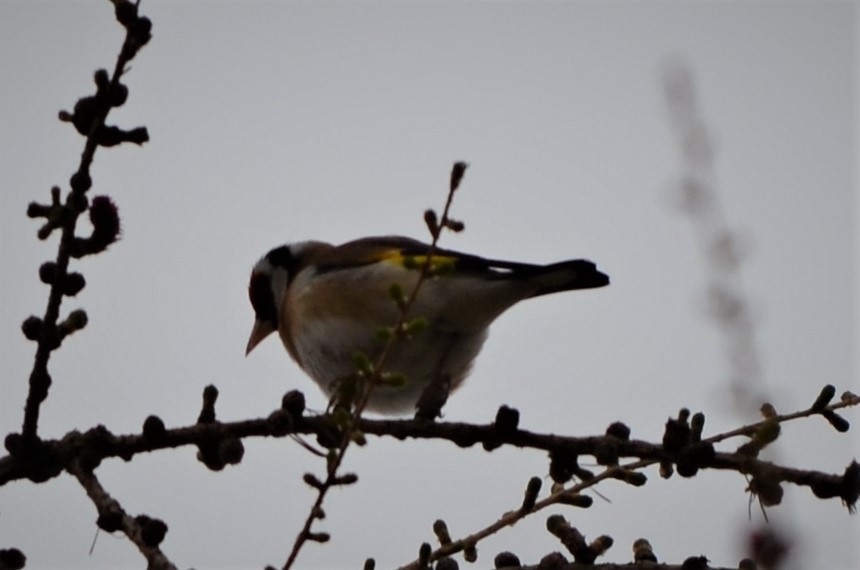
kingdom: Animalia
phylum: Chordata
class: Aves
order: Passeriformes
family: Fringillidae
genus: Carduelis
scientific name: Carduelis carduelis
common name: European goldfinch
